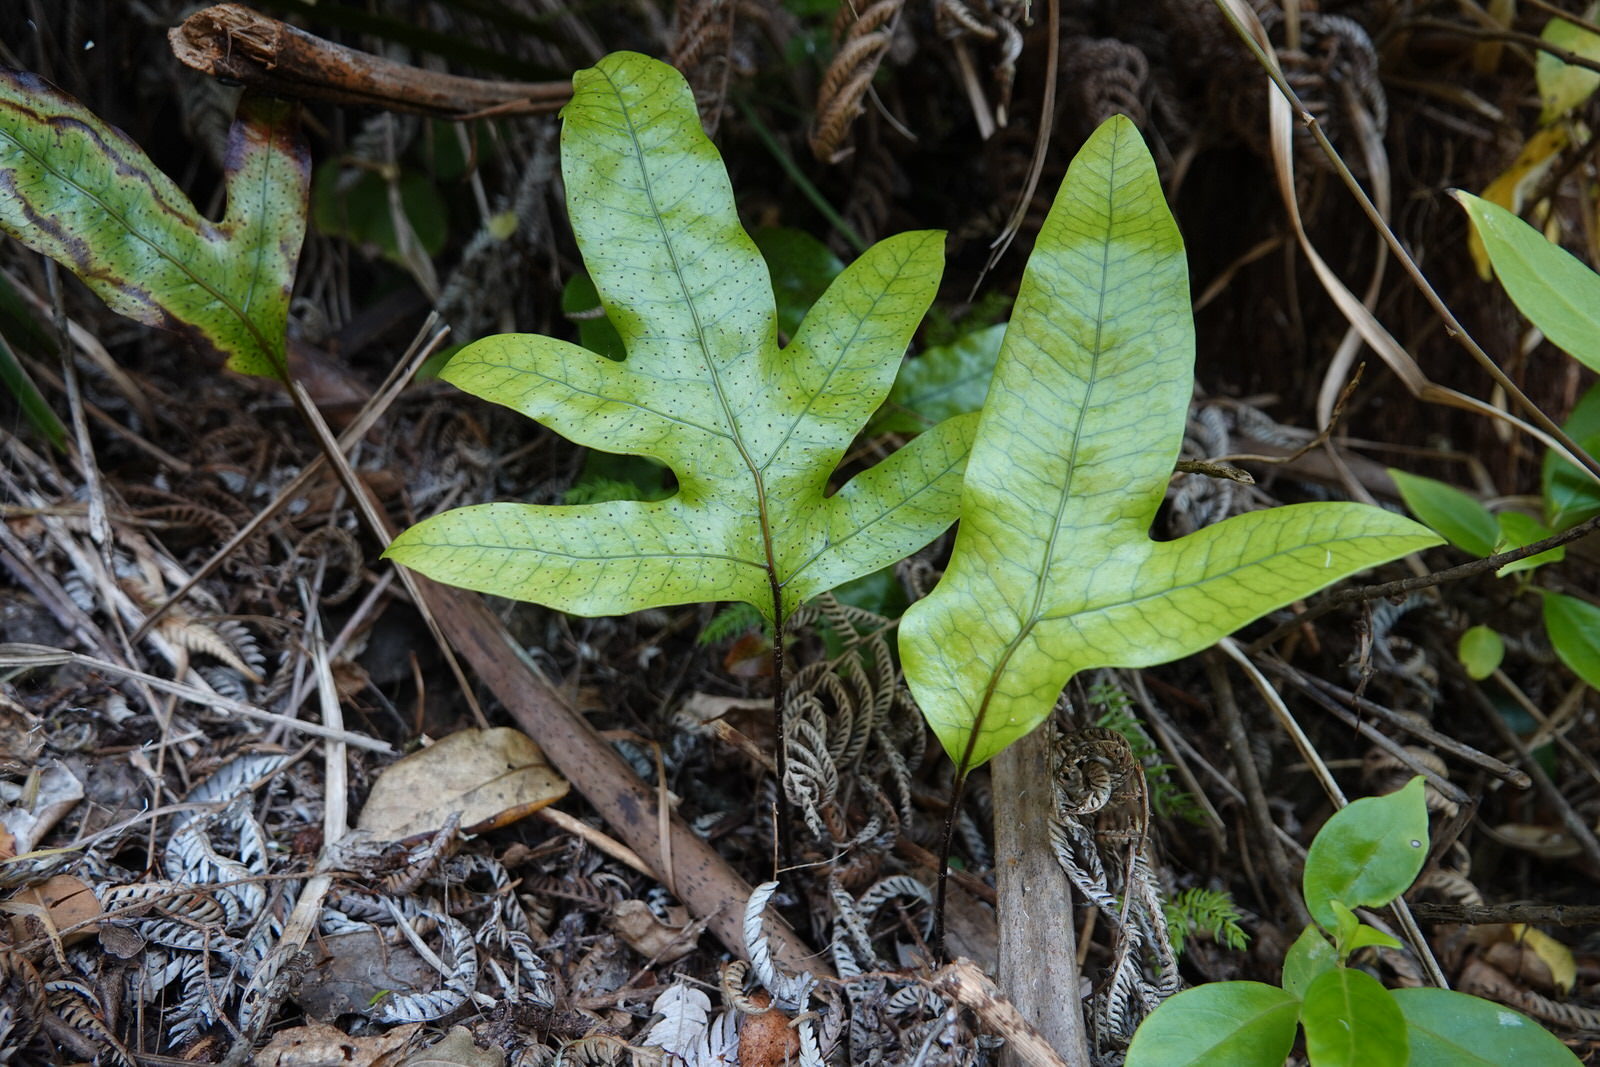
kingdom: Plantae
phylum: Tracheophyta
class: Polypodiopsida
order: Polypodiales
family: Polypodiaceae
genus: Lecanopteris
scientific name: Lecanopteris pustulata
